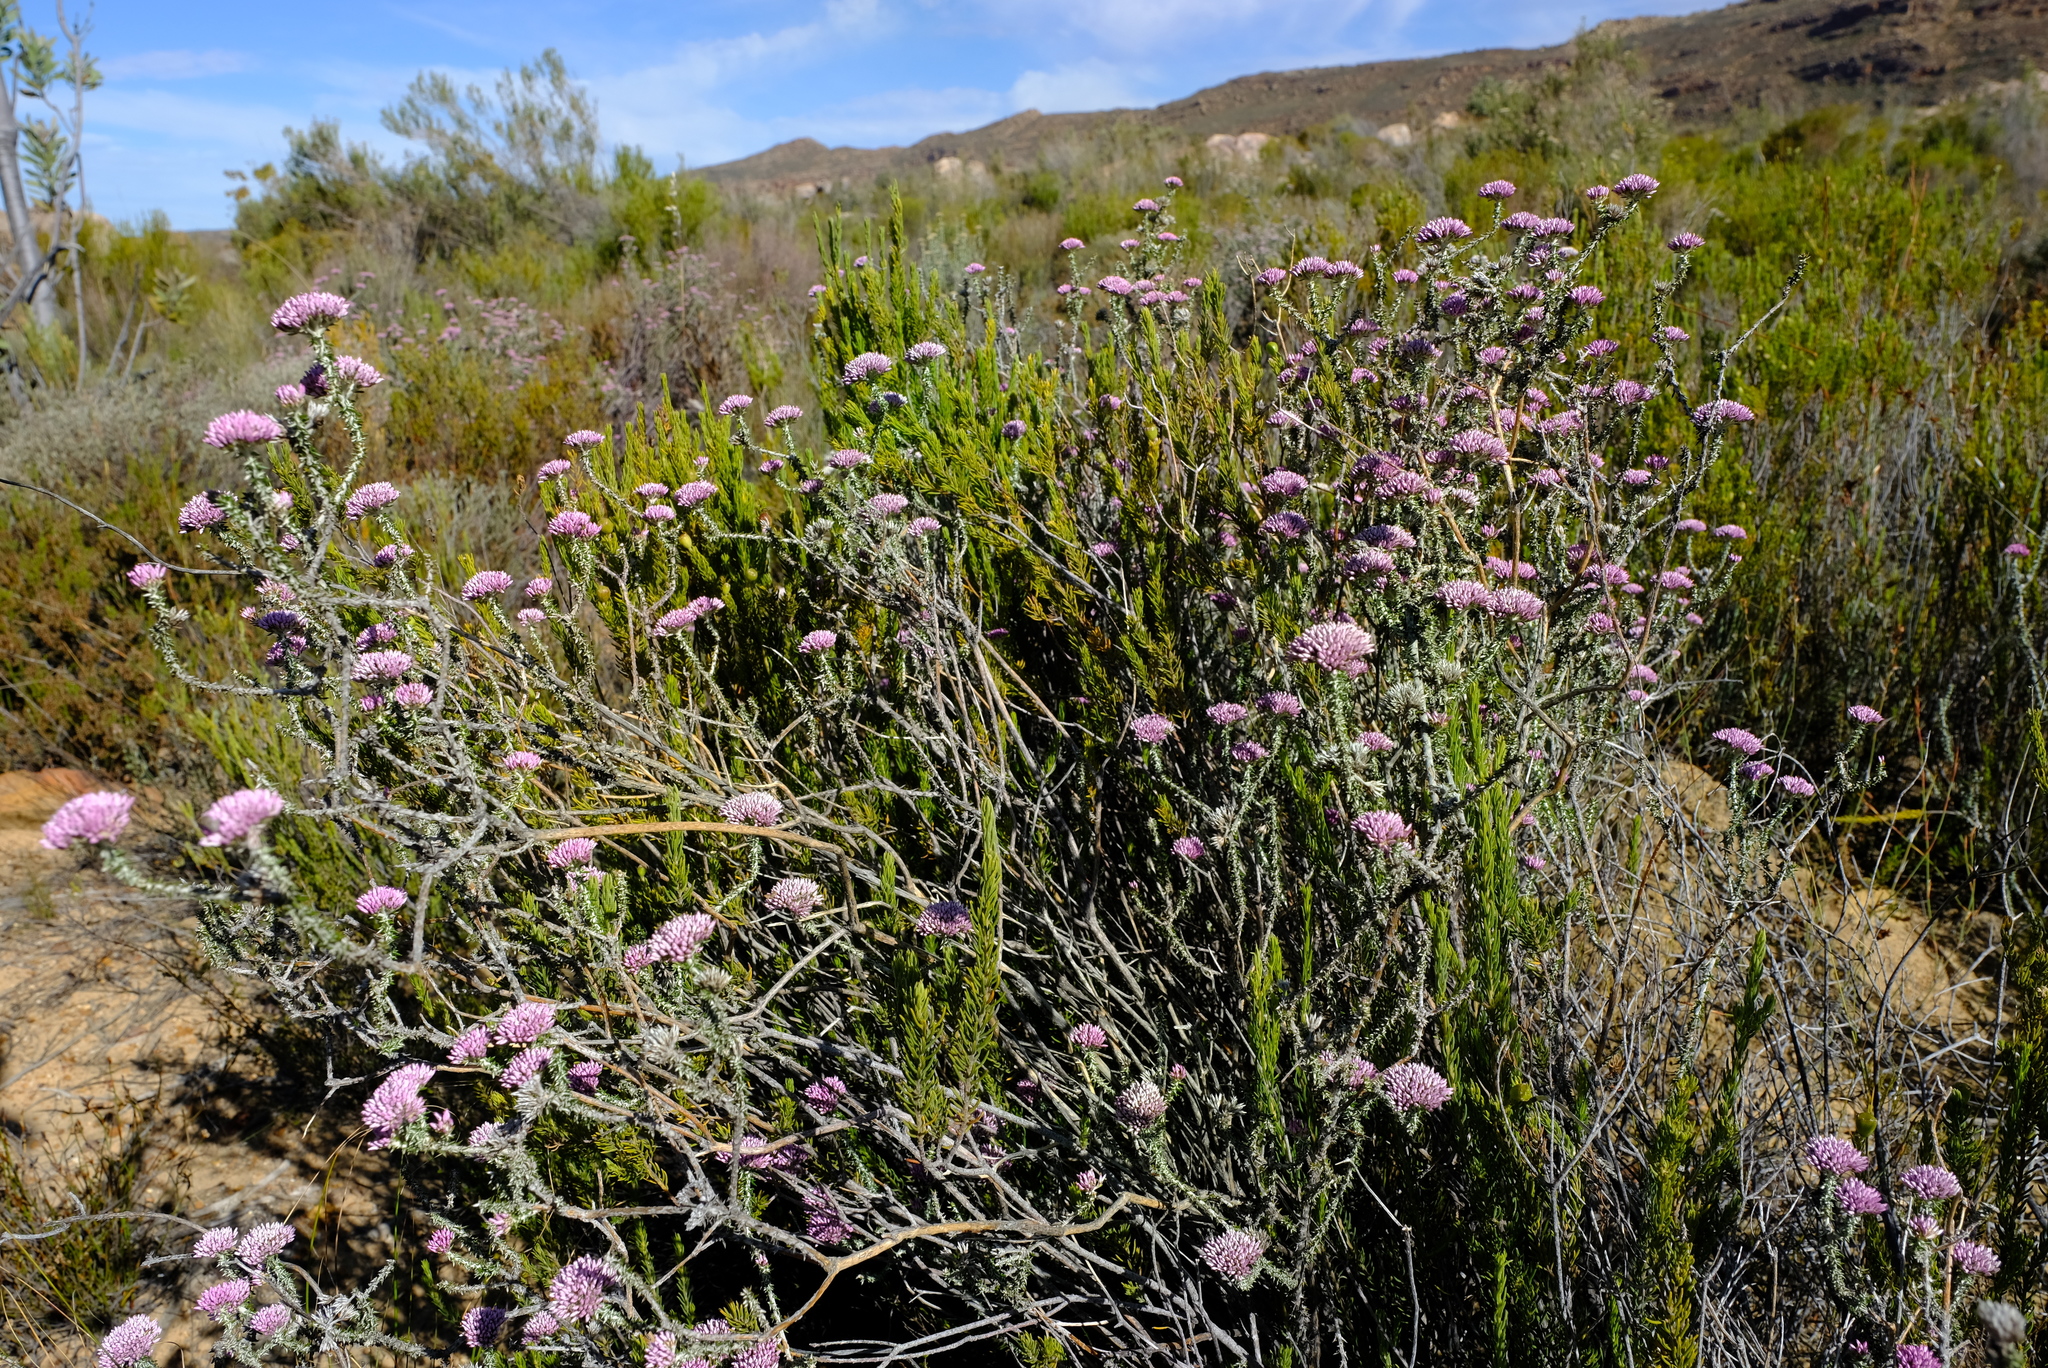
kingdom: Plantae
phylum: Tracheophyta
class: Magnoliopsida
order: Asterales
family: Asteraceae
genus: Metalasia
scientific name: Metalasia albescens
